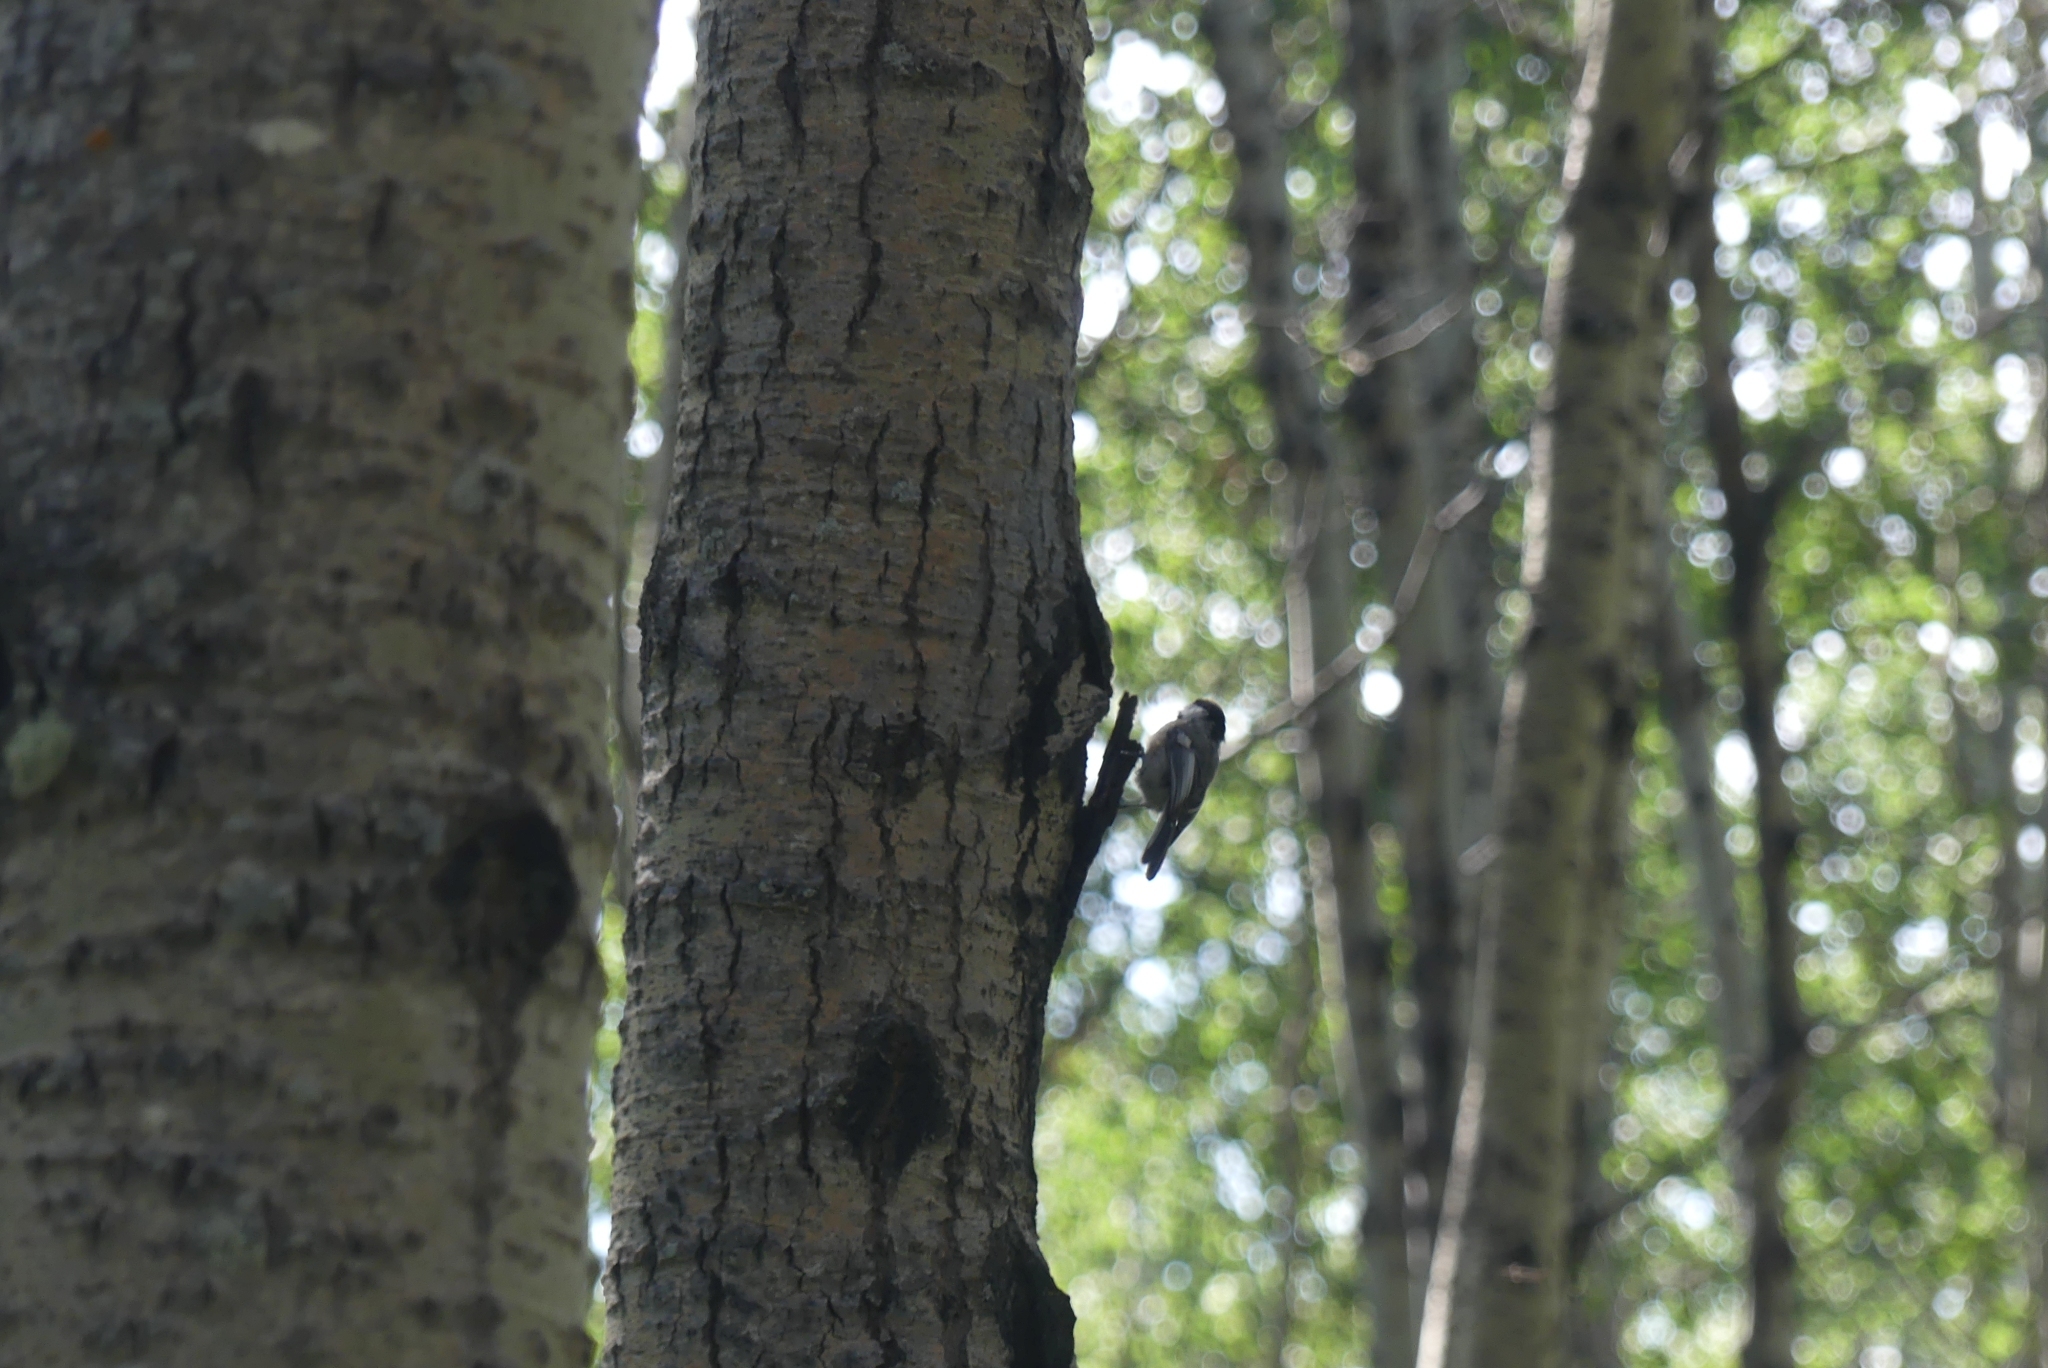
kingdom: Animalia
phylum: Chordata
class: Aves
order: Passeriformes
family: Paridae
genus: Poecile
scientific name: Poecile atricapillus
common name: Black-capped chickadee
